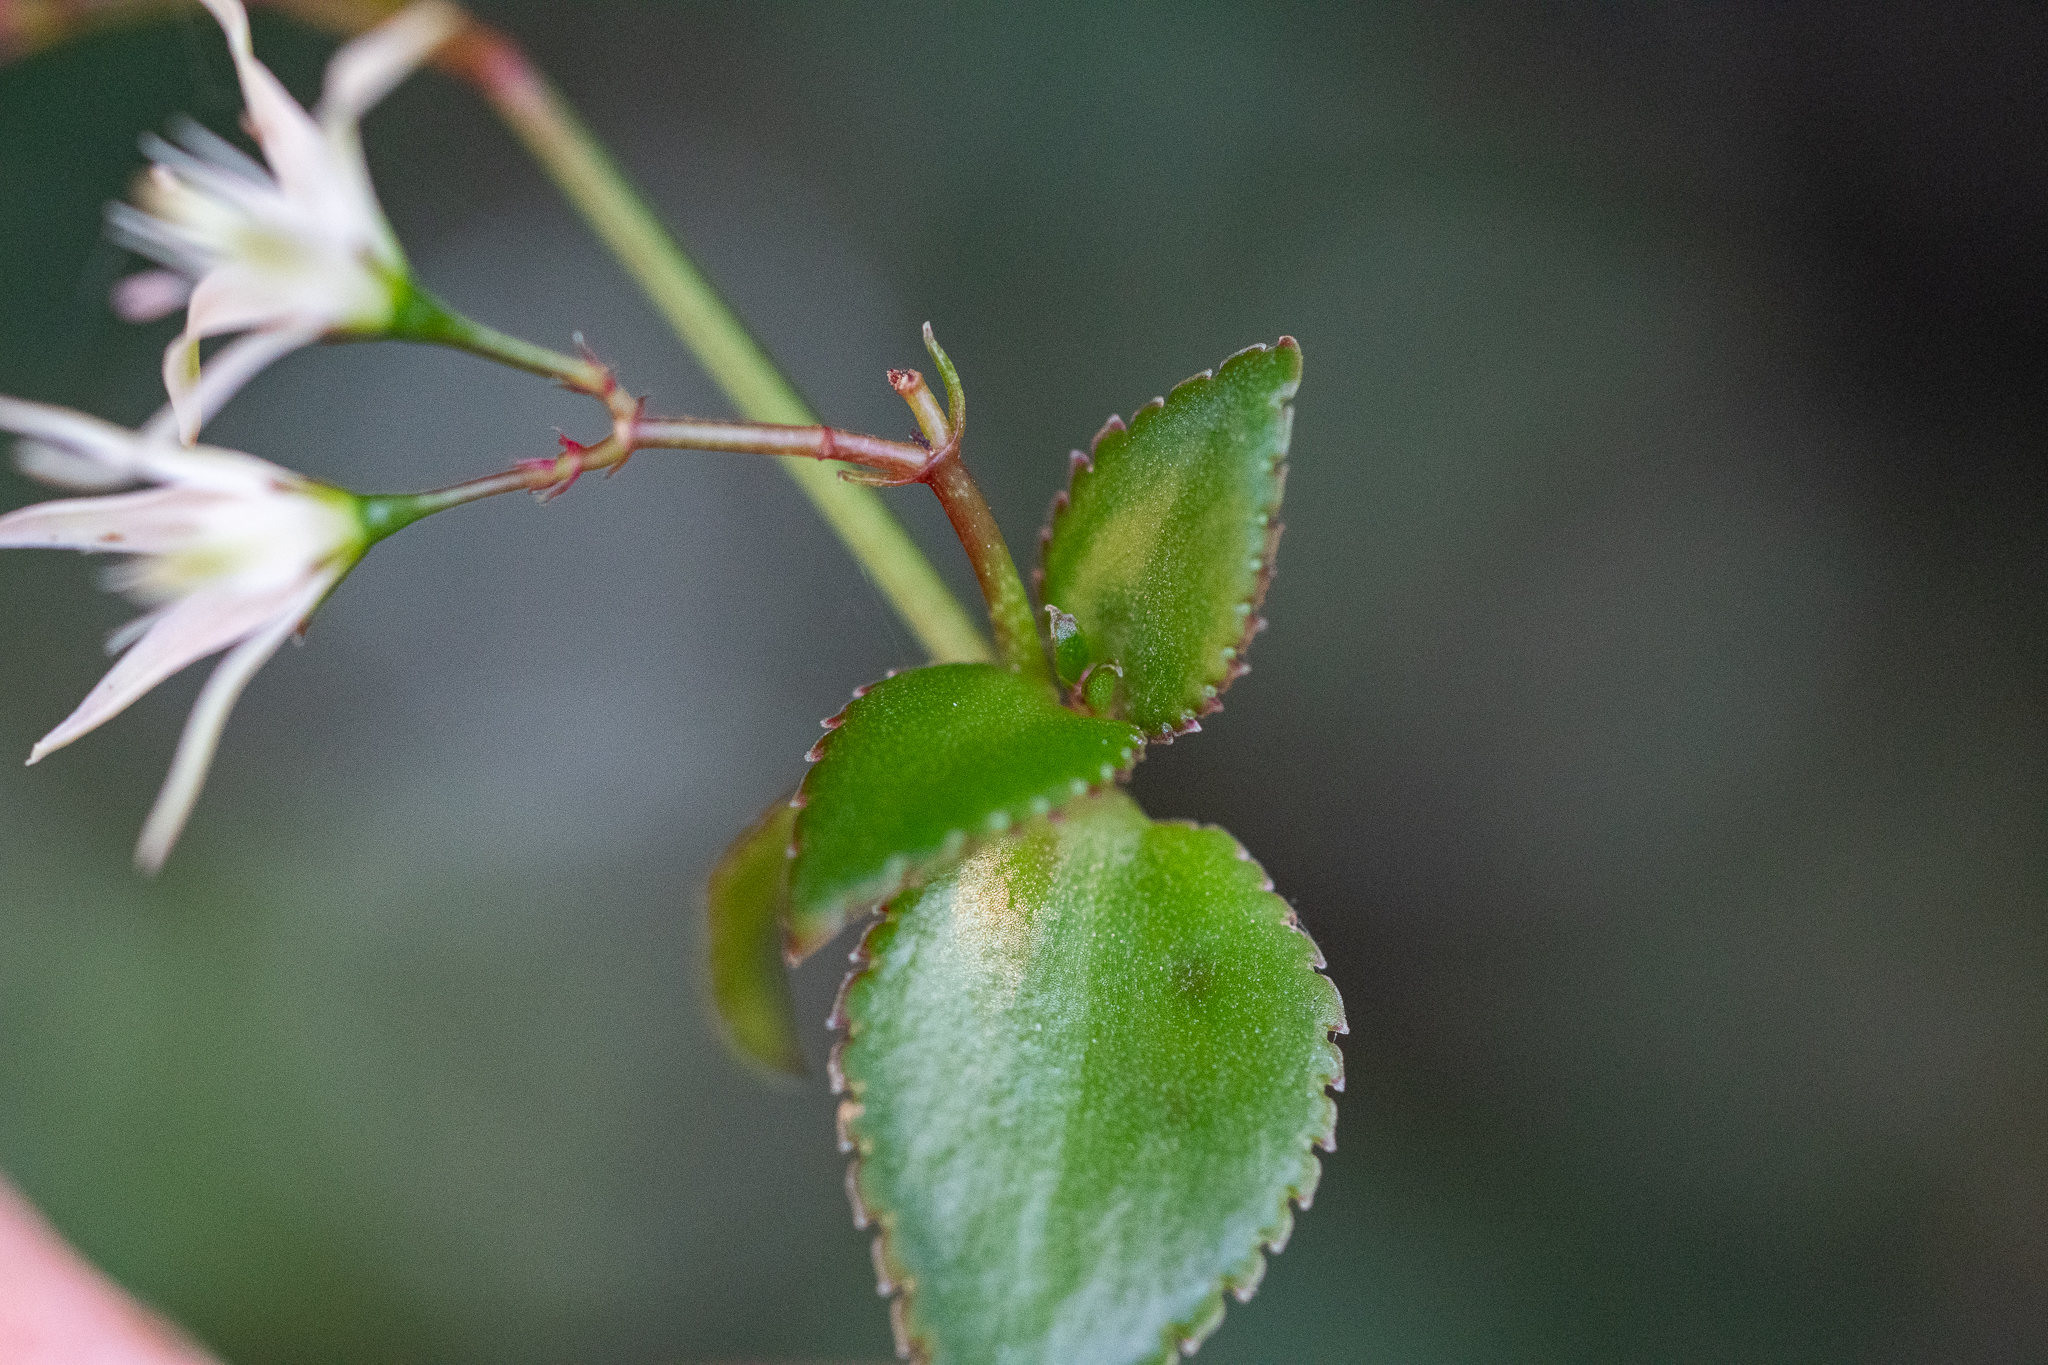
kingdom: Plantae
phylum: Tracheophyta
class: Magnoliopsida
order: Saxifragales
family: Crassulaceae
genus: Crassula
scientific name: Crassula sarmentosa
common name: Jade-tree
